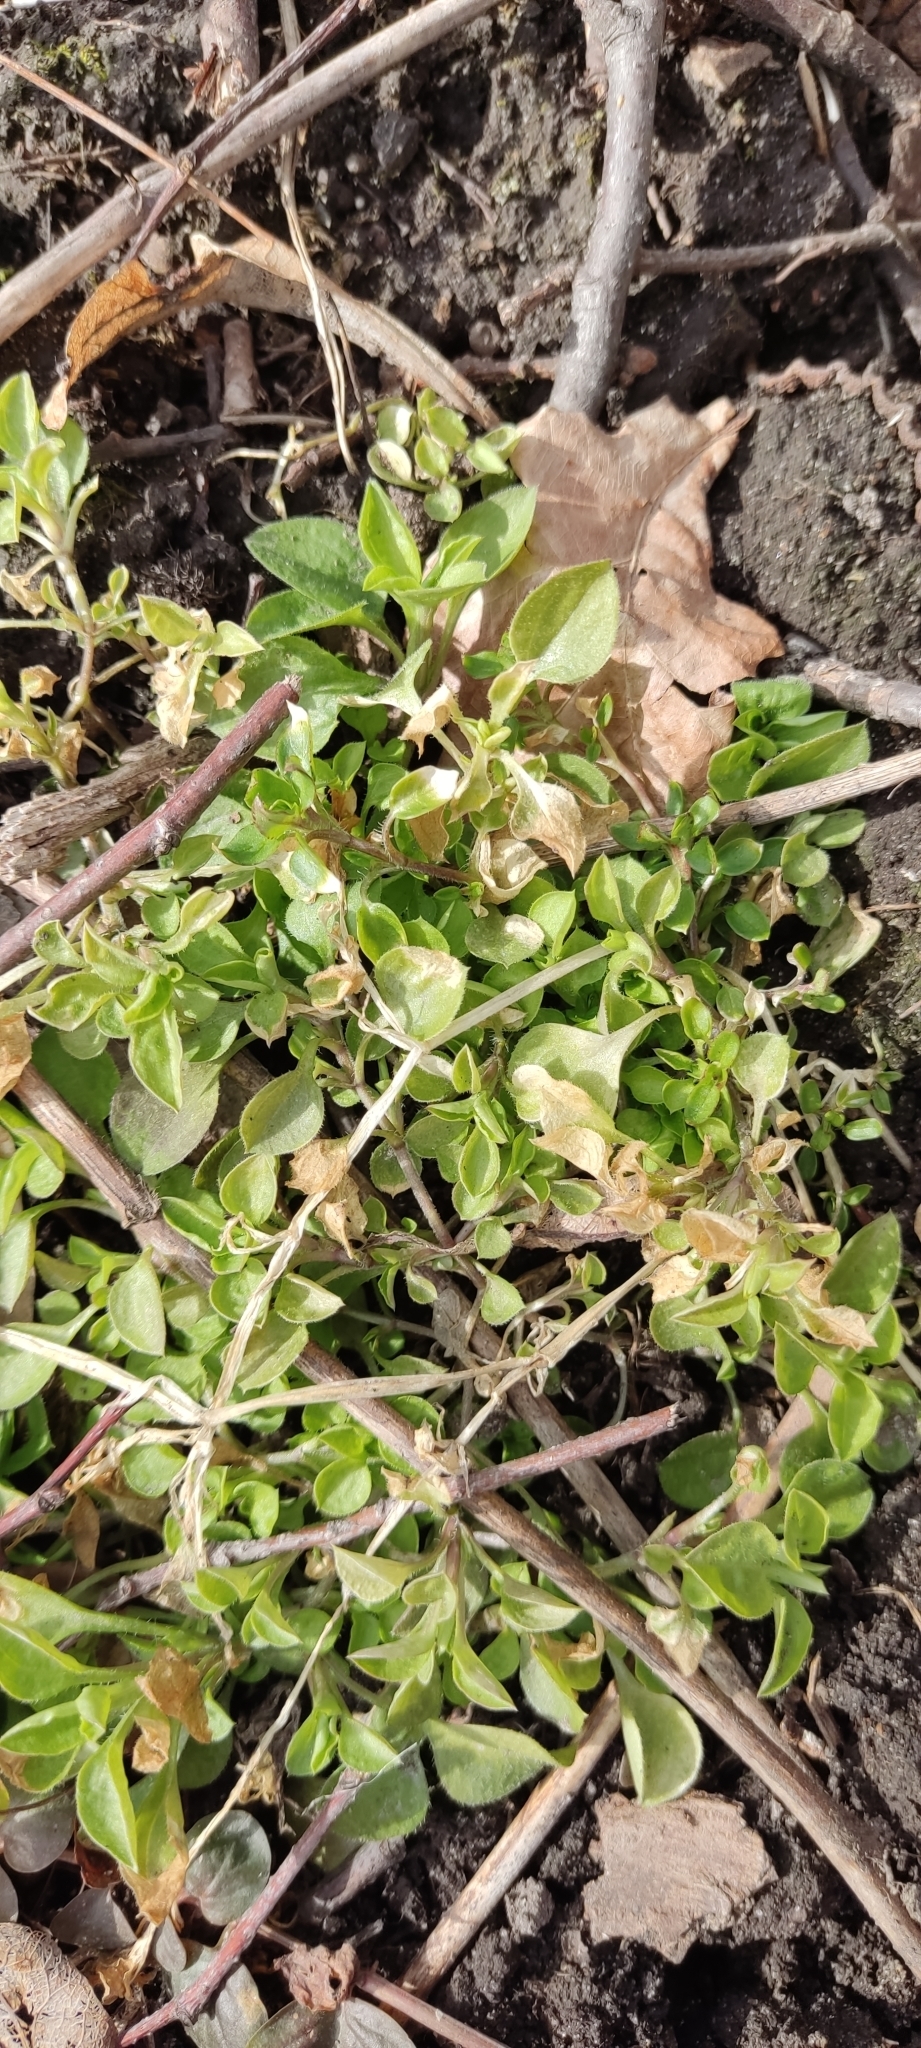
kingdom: Plantae
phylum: Tracheophyta
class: Magnoliopsida
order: Caryophyllales
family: Caryophyllaceae
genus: Stellaria
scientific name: Stellaria media
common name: Common chickweed
